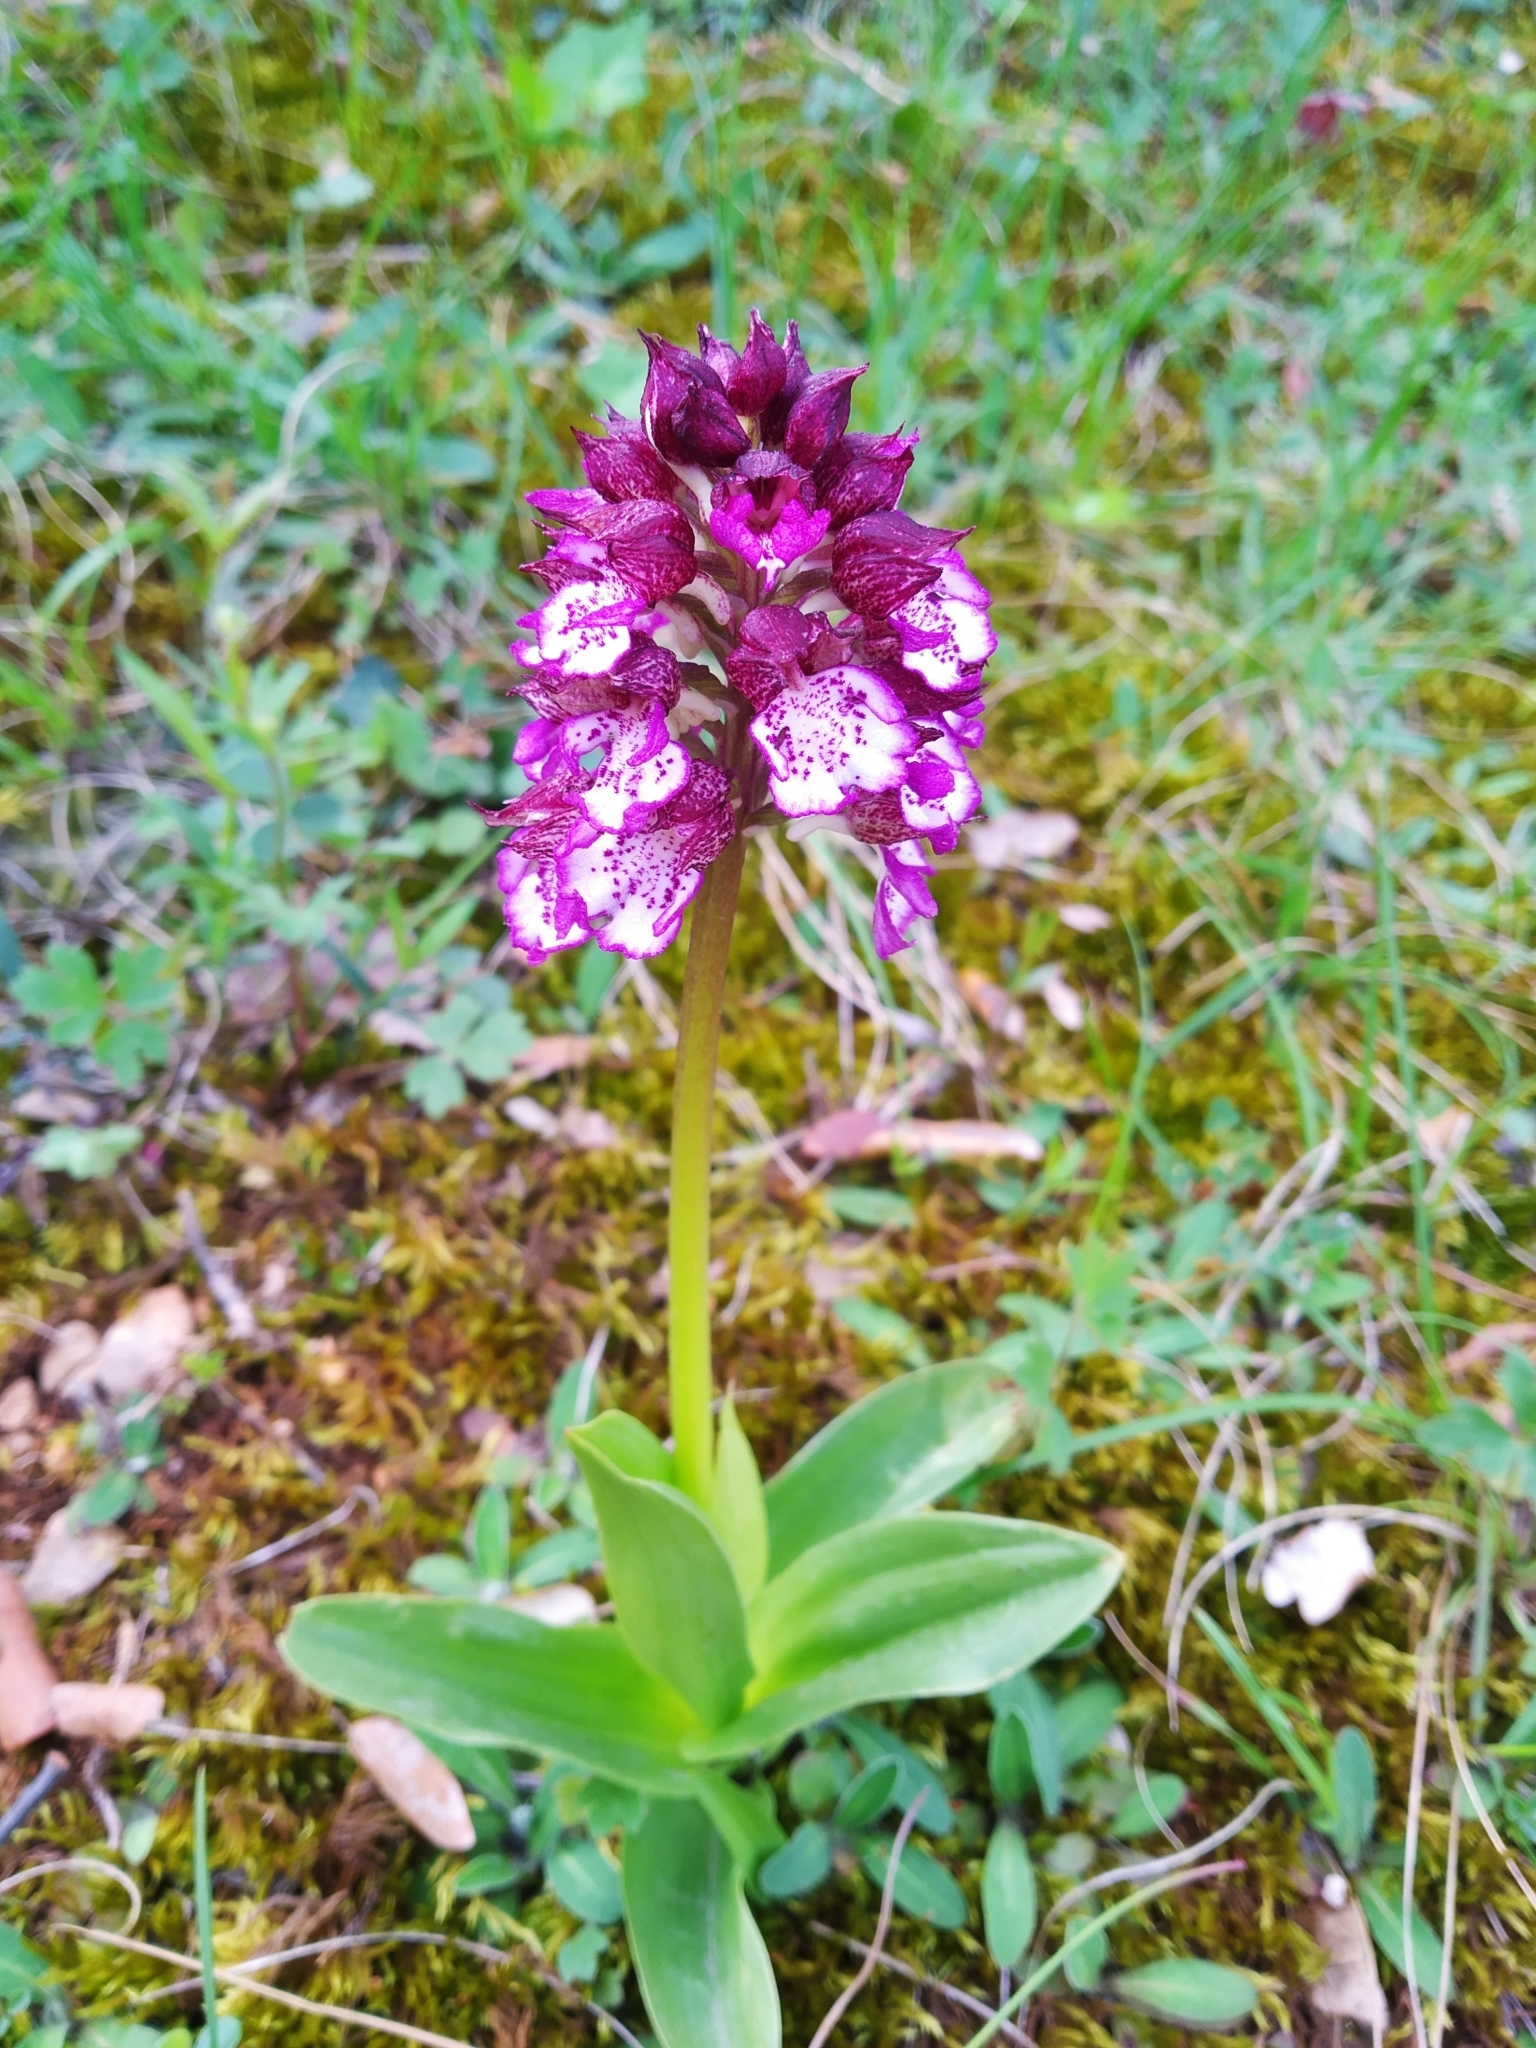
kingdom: Plantae
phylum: Tracheophyta
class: Liliopsida
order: Asparagales
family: Orchidaceae
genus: Orchis
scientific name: Orchis purpurea
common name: Lady orchid
